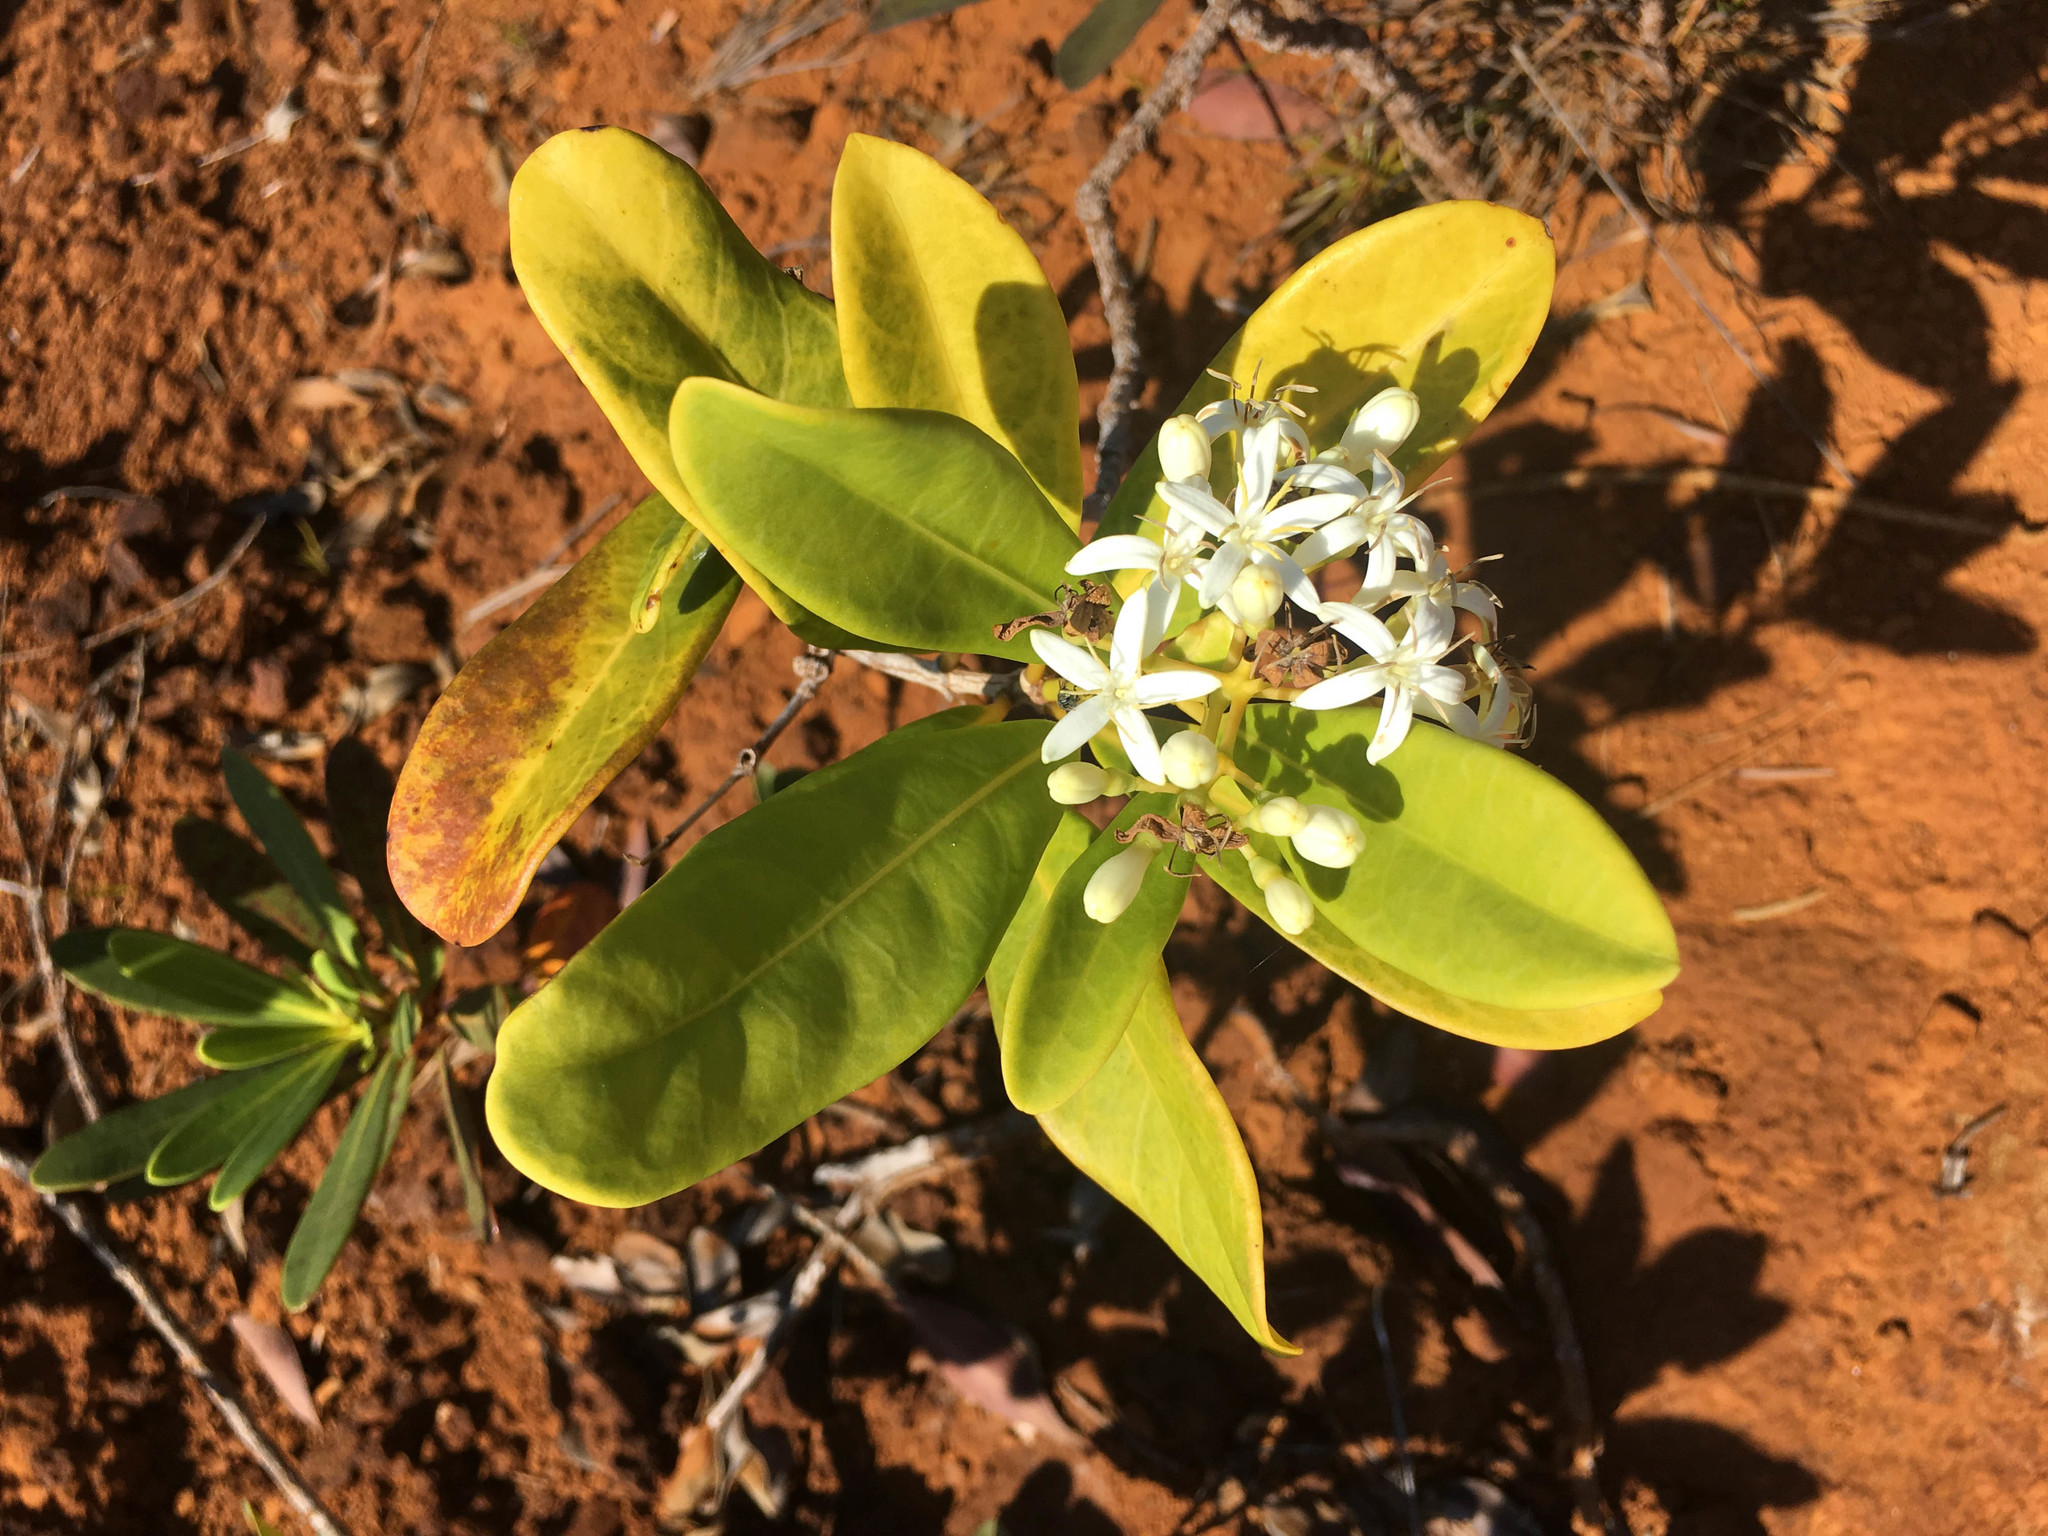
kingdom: Plantae
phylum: Tracheophyta
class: Magnoliopsida
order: Gentianales
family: Rubiaceae
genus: Coelospermum
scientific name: Coelospermum crassifolium
